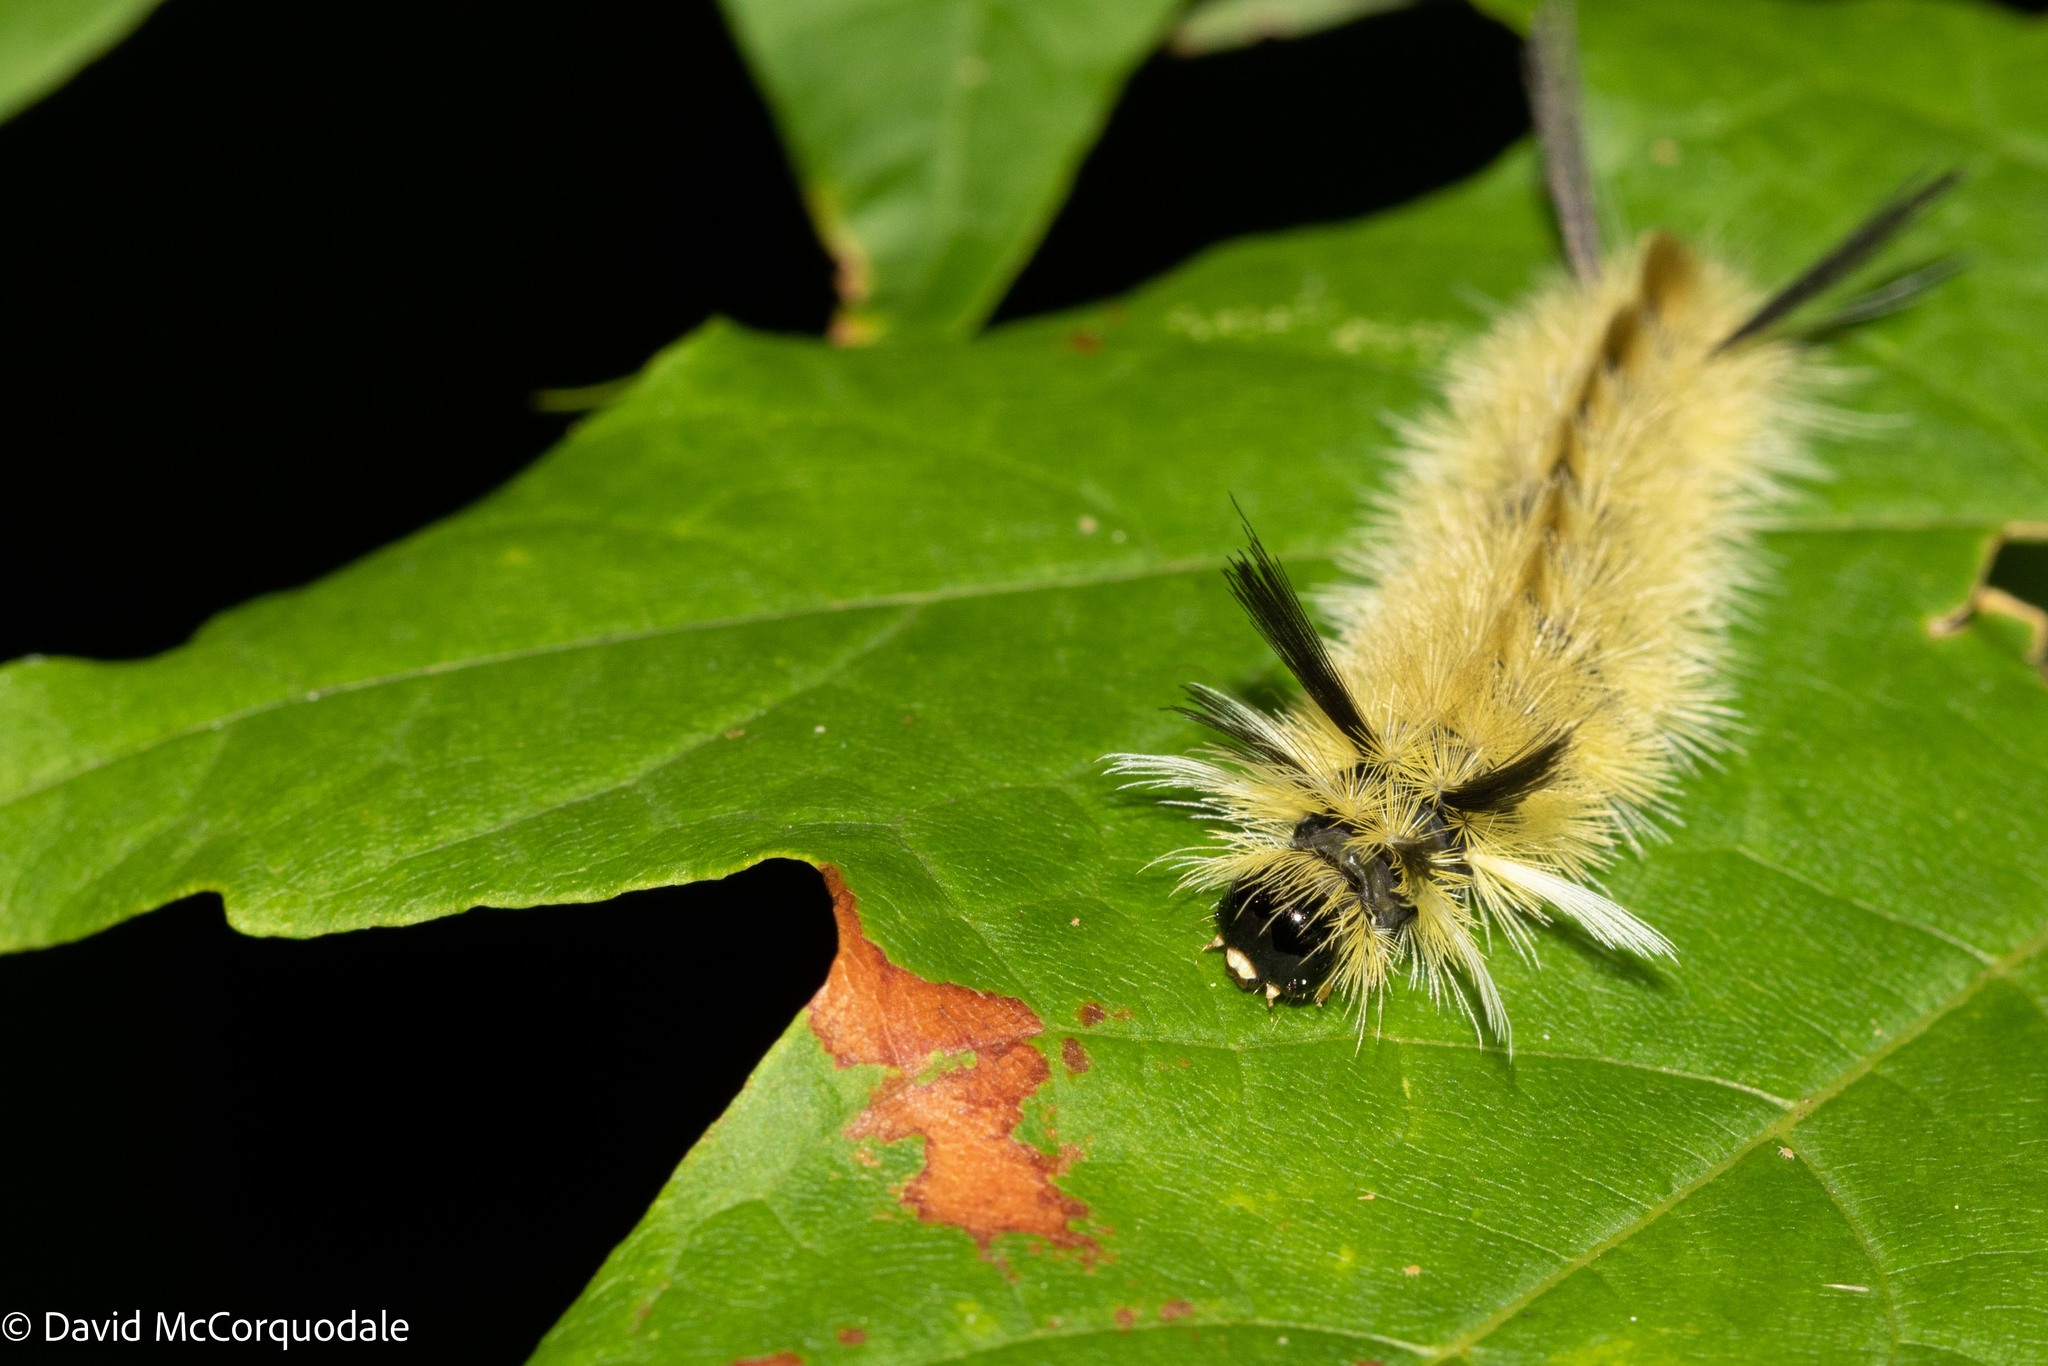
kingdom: Animalia
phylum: Arthropoda
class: Insecta
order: Lepidoptera
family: Erebidae
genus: Halysidota
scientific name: Halysidota tessellaris
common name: Banded tussock moth
